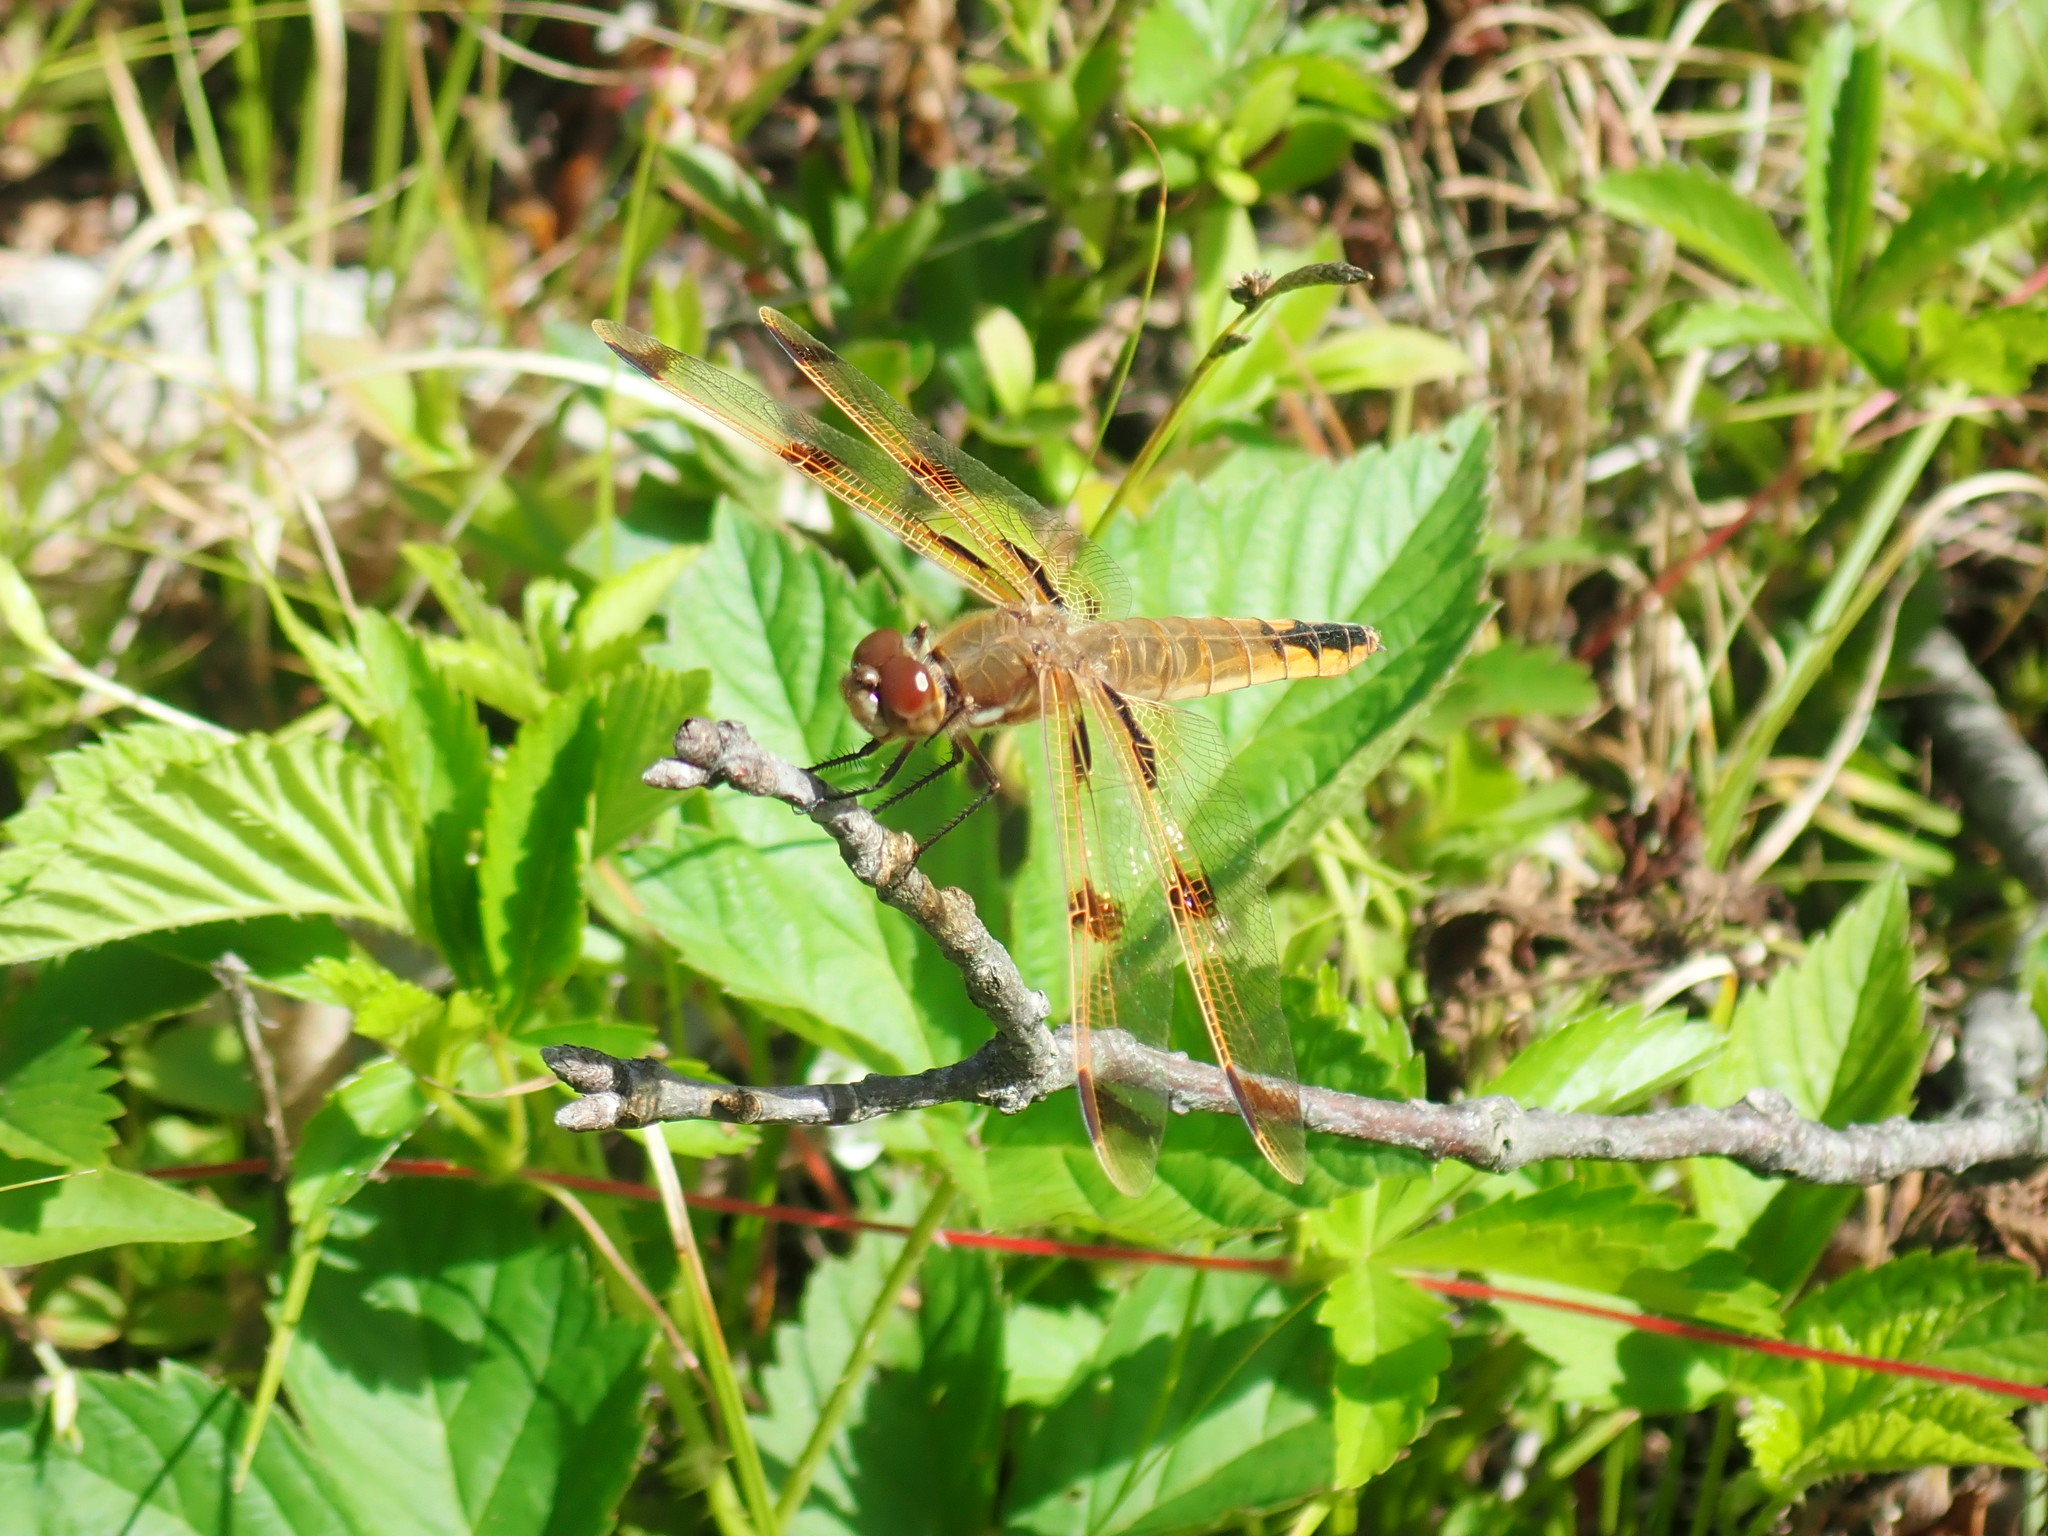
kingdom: Animalia
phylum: Arthropoda
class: Insecta
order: Odonata
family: Libellulidae
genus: Libellula
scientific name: Libellula semifasciata
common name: Painted skimmer
